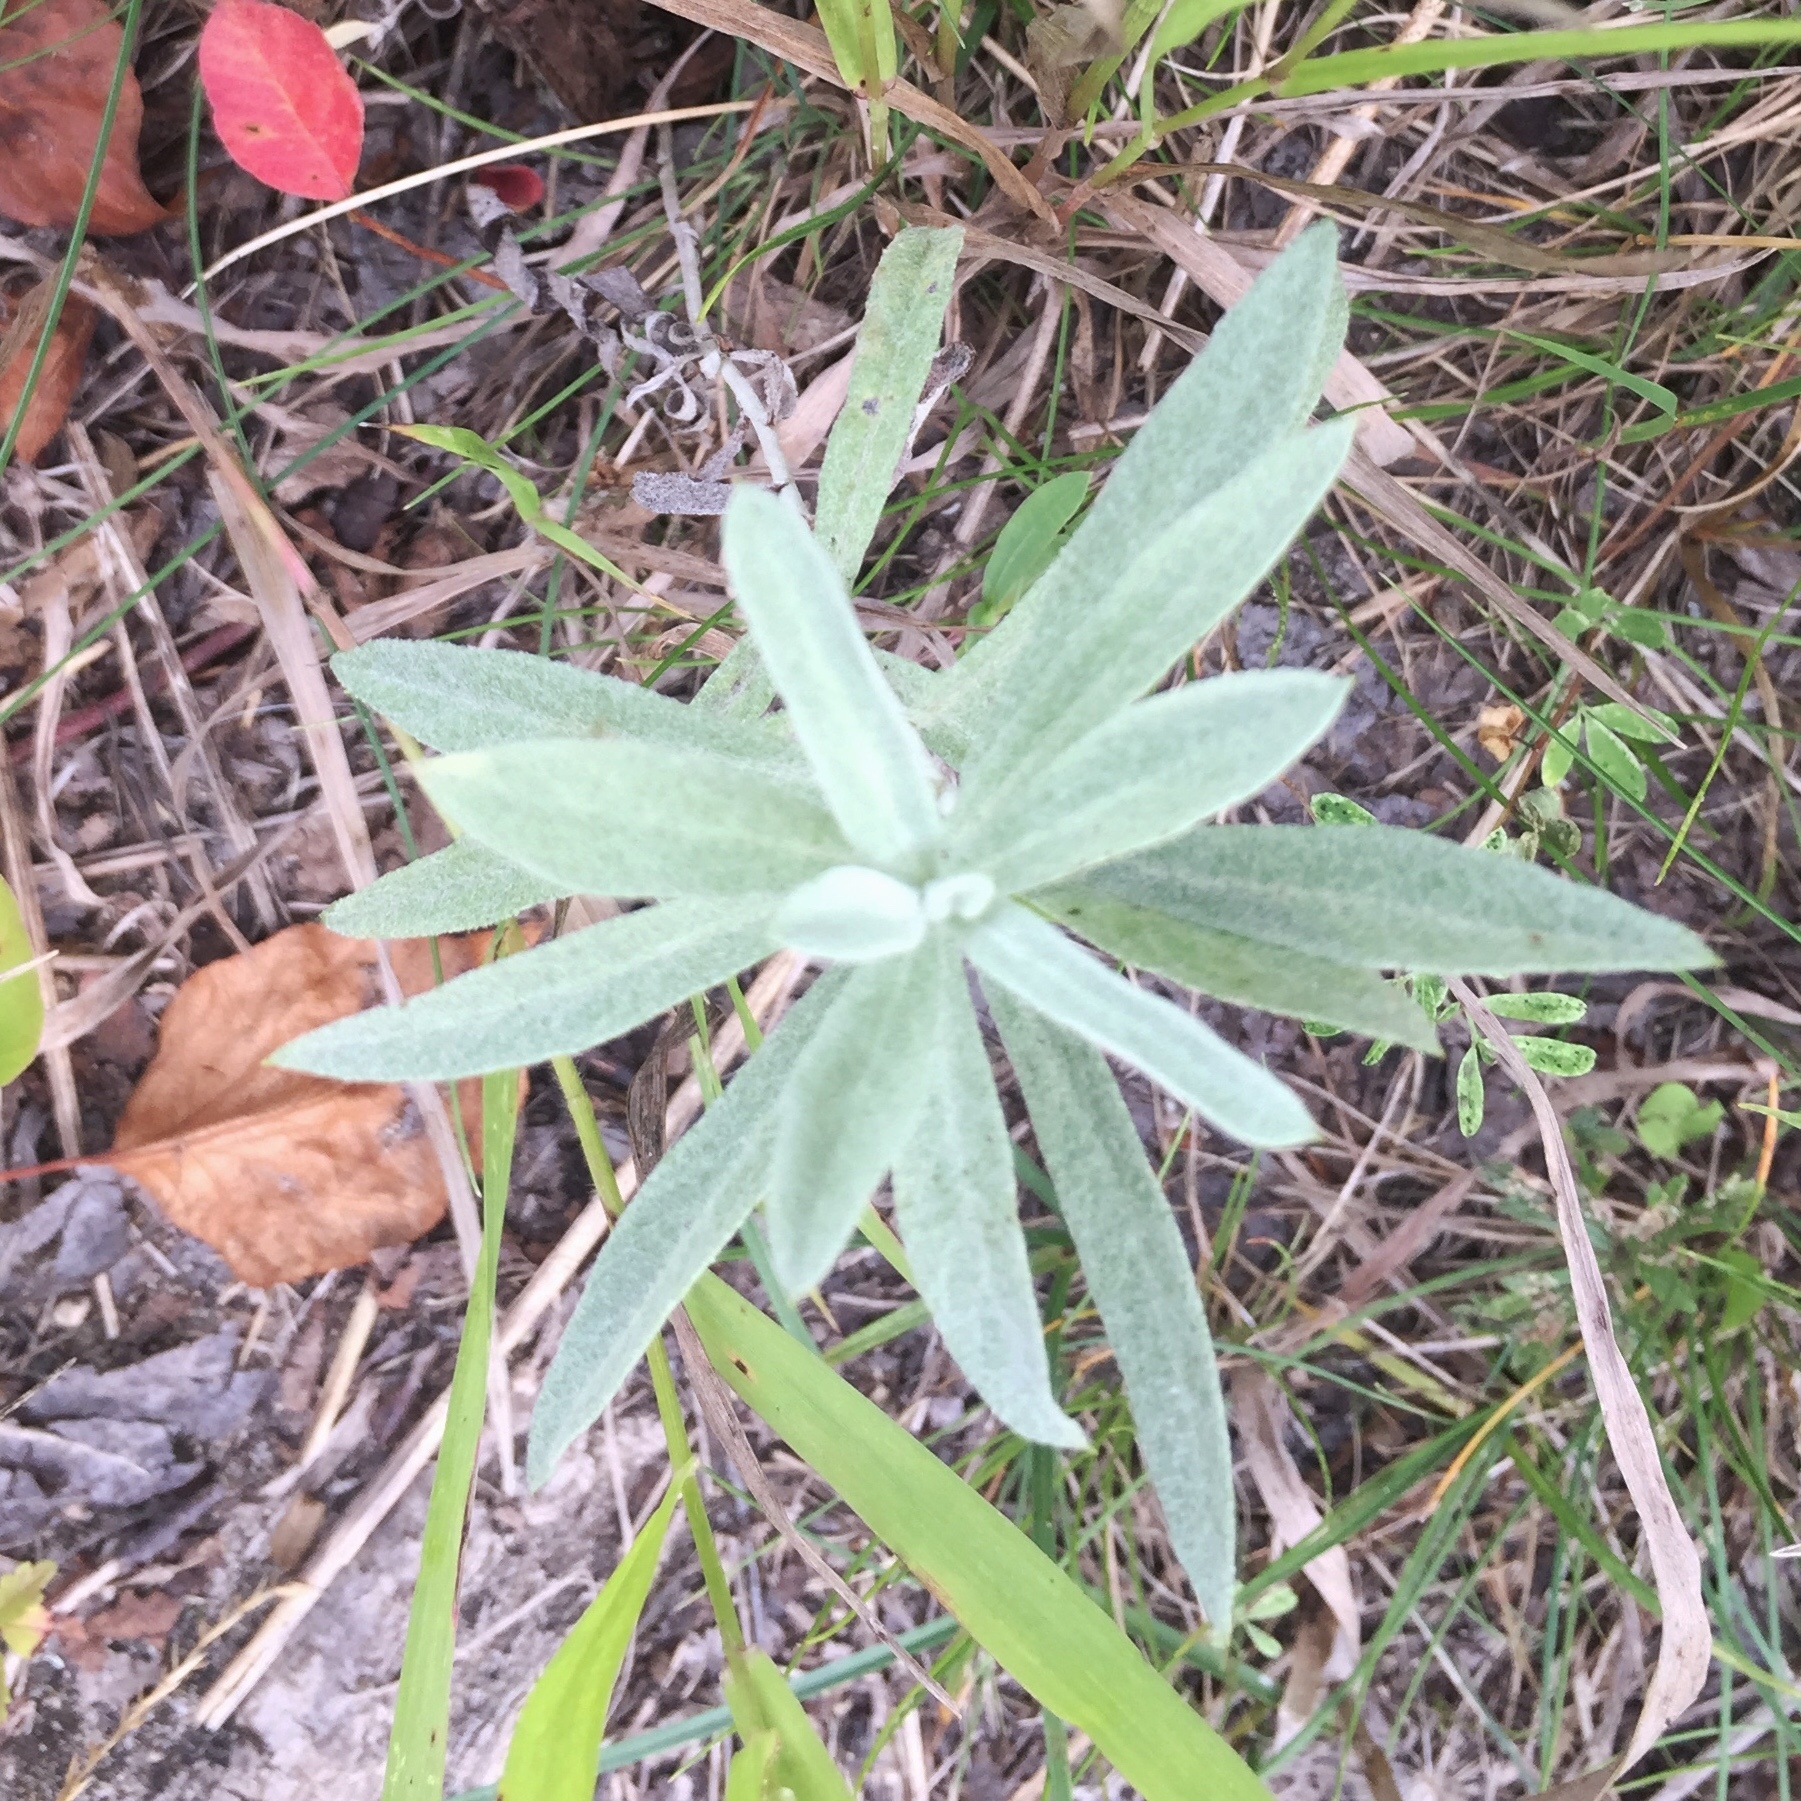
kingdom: Plantae
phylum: Tracheophyta
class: Magnoliopsida
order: Asterales
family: Asteraceae
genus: Artemisia
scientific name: Artemisia ludoviciana
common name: Western mugwort
